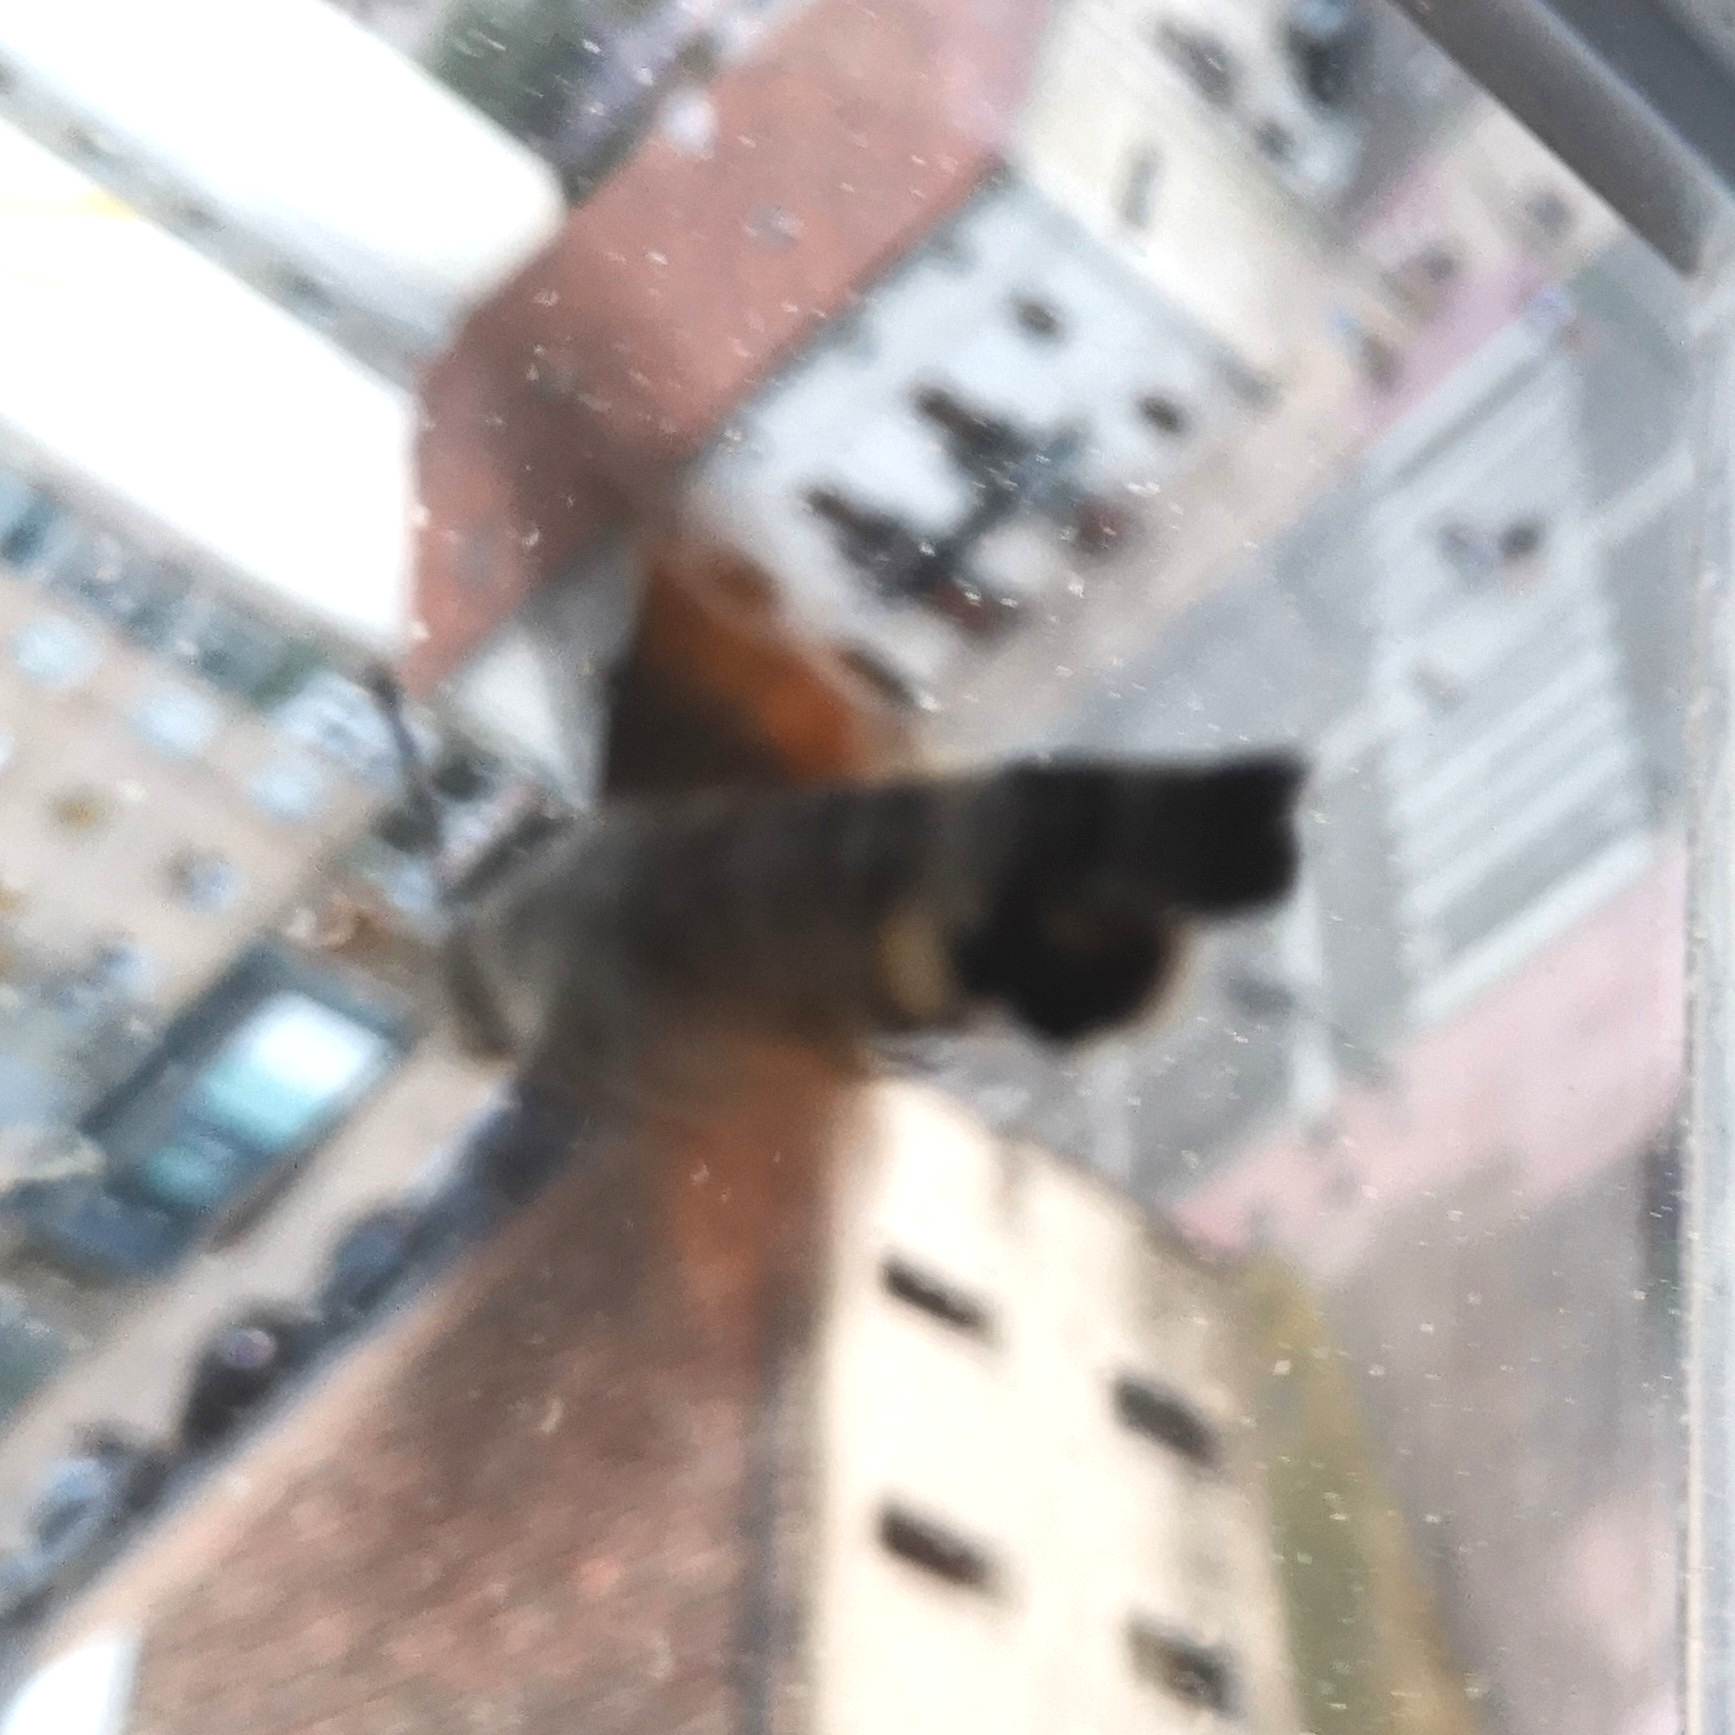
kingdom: Animalia
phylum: Arthropoda
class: Insecta
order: Lepidoptera
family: Sphingidae
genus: Macroglossum
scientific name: Macroglossum stellatarum
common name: Humming-bird hawk-moth
